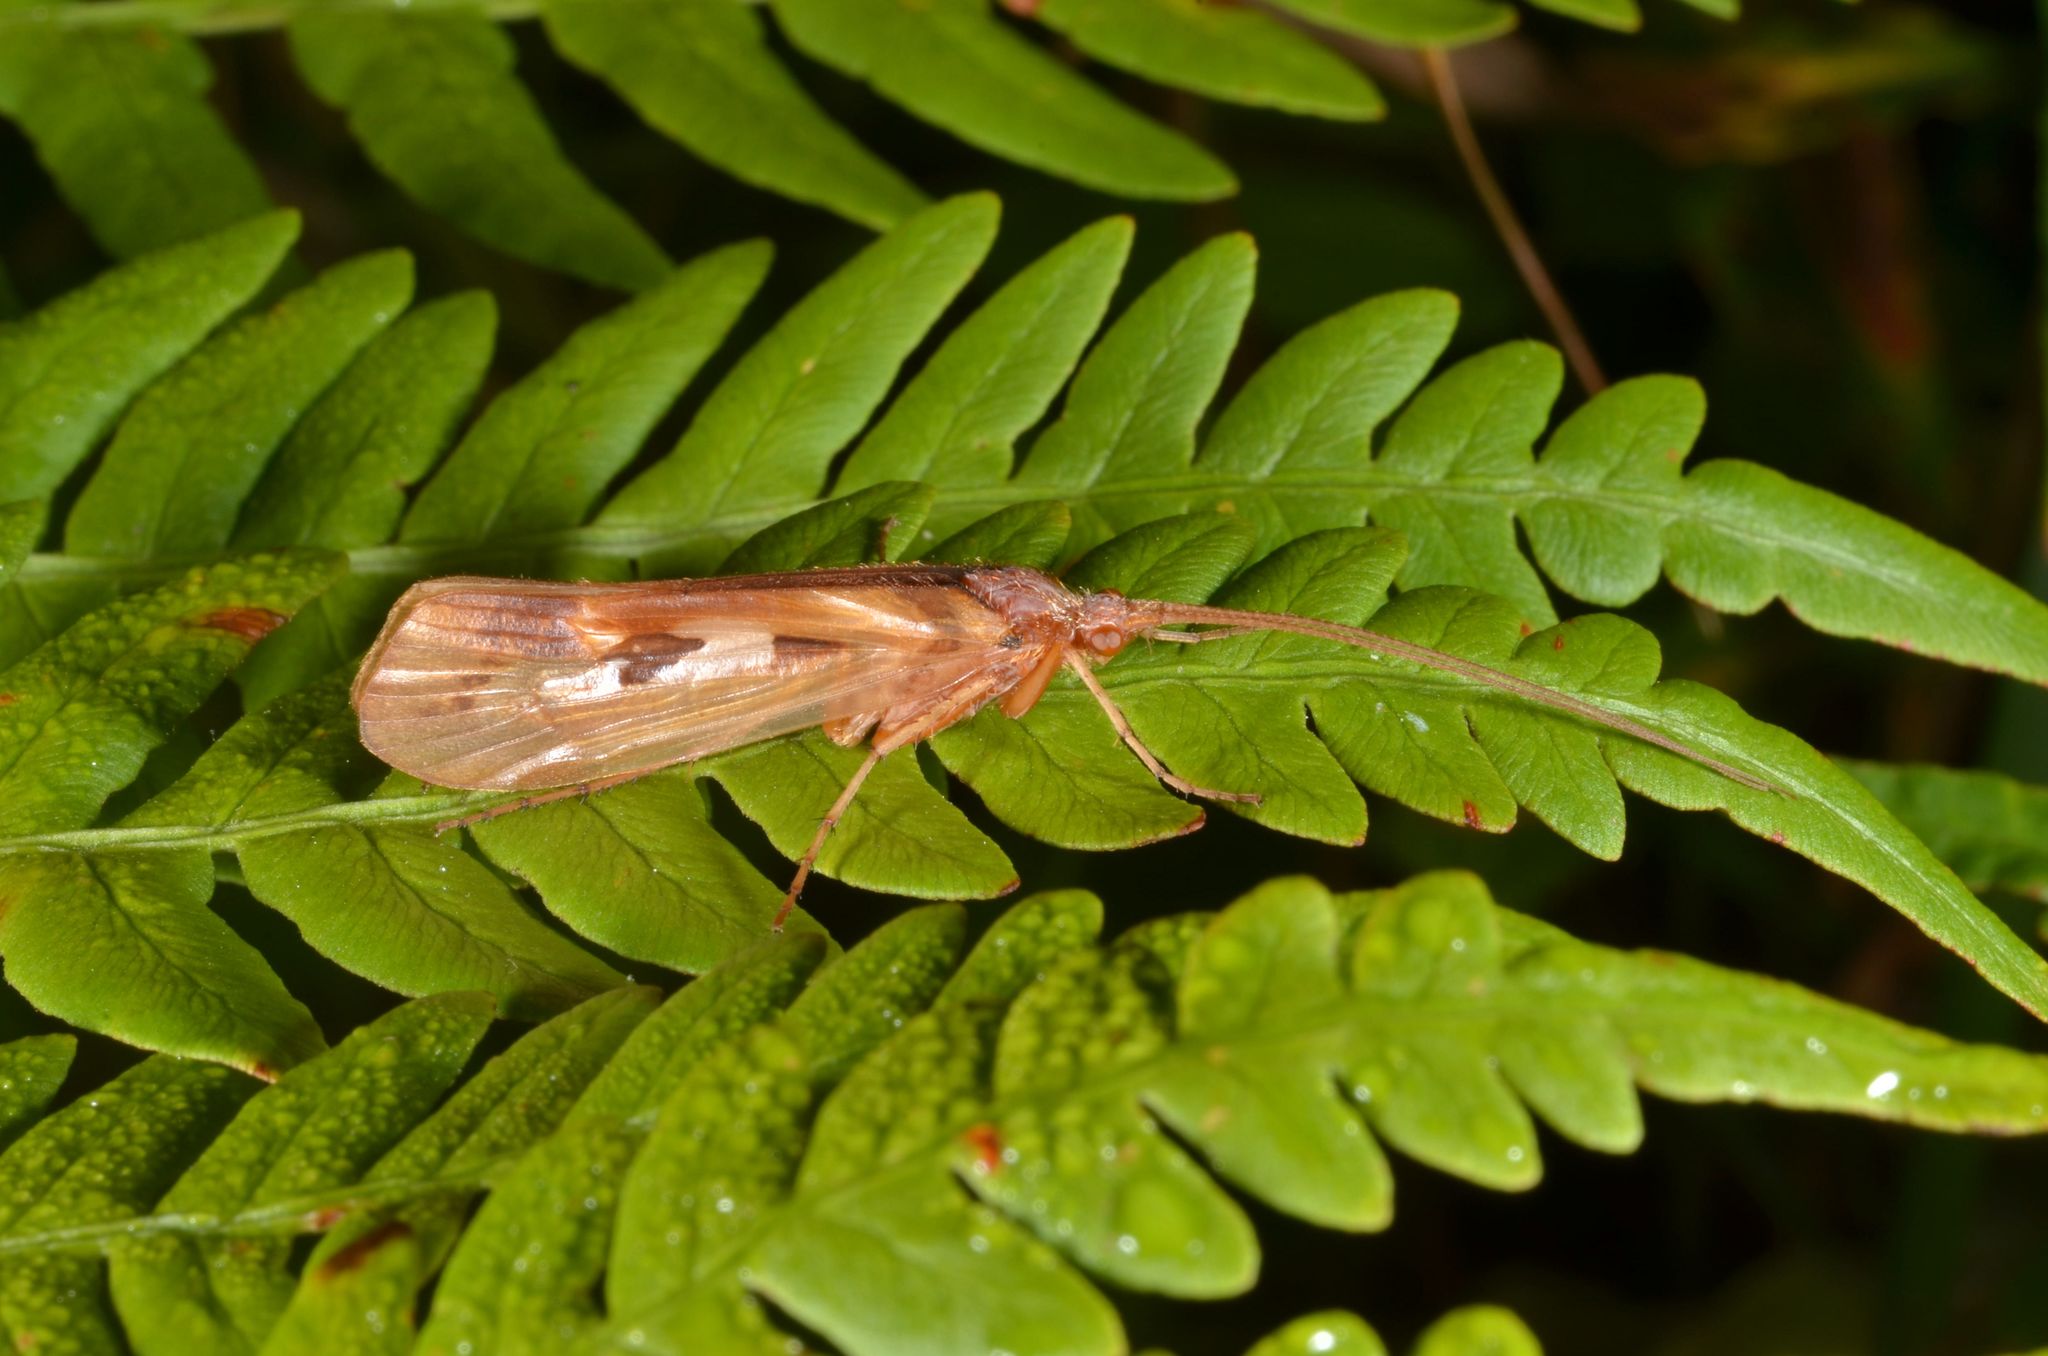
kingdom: Animalia
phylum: Arthropoda
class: Insecta
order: Trichoptera
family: Limnephilidae
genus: Limnephilus
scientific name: Limnephilus rhombicus
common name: Diamond northern caddisfly
